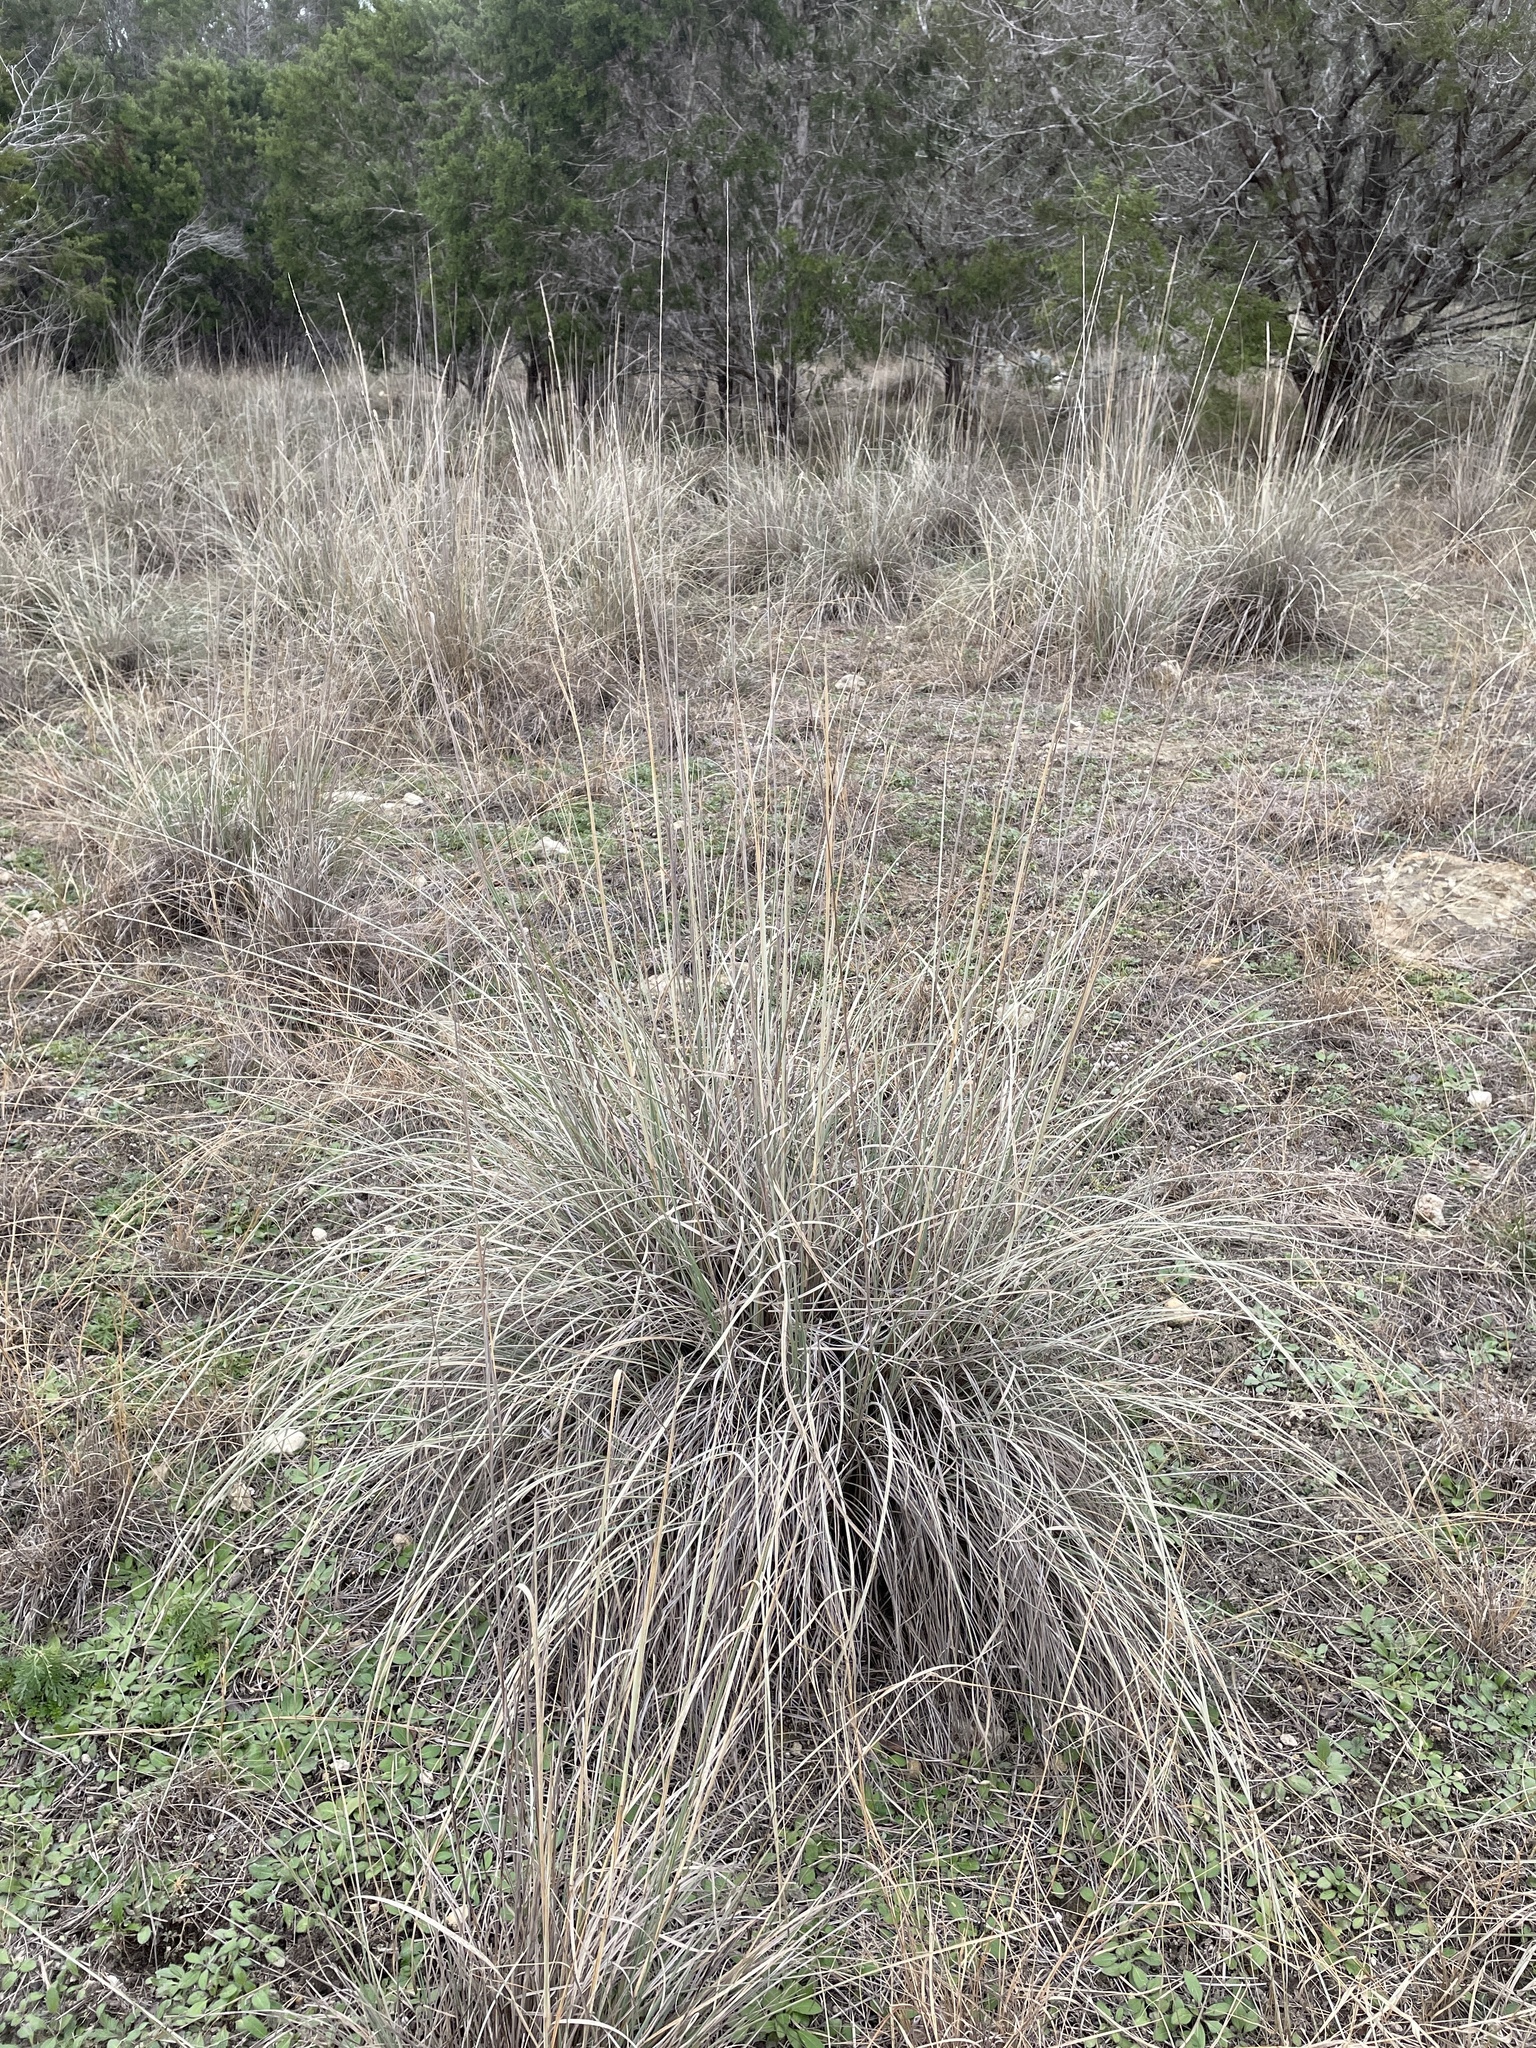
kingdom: Plantae
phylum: Tracheophyta
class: Liliopsida
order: Poales
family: Poaceae
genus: Muhlenbergia
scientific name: Muhlenbergia lindheimeri
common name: Lindheimer's muhly
